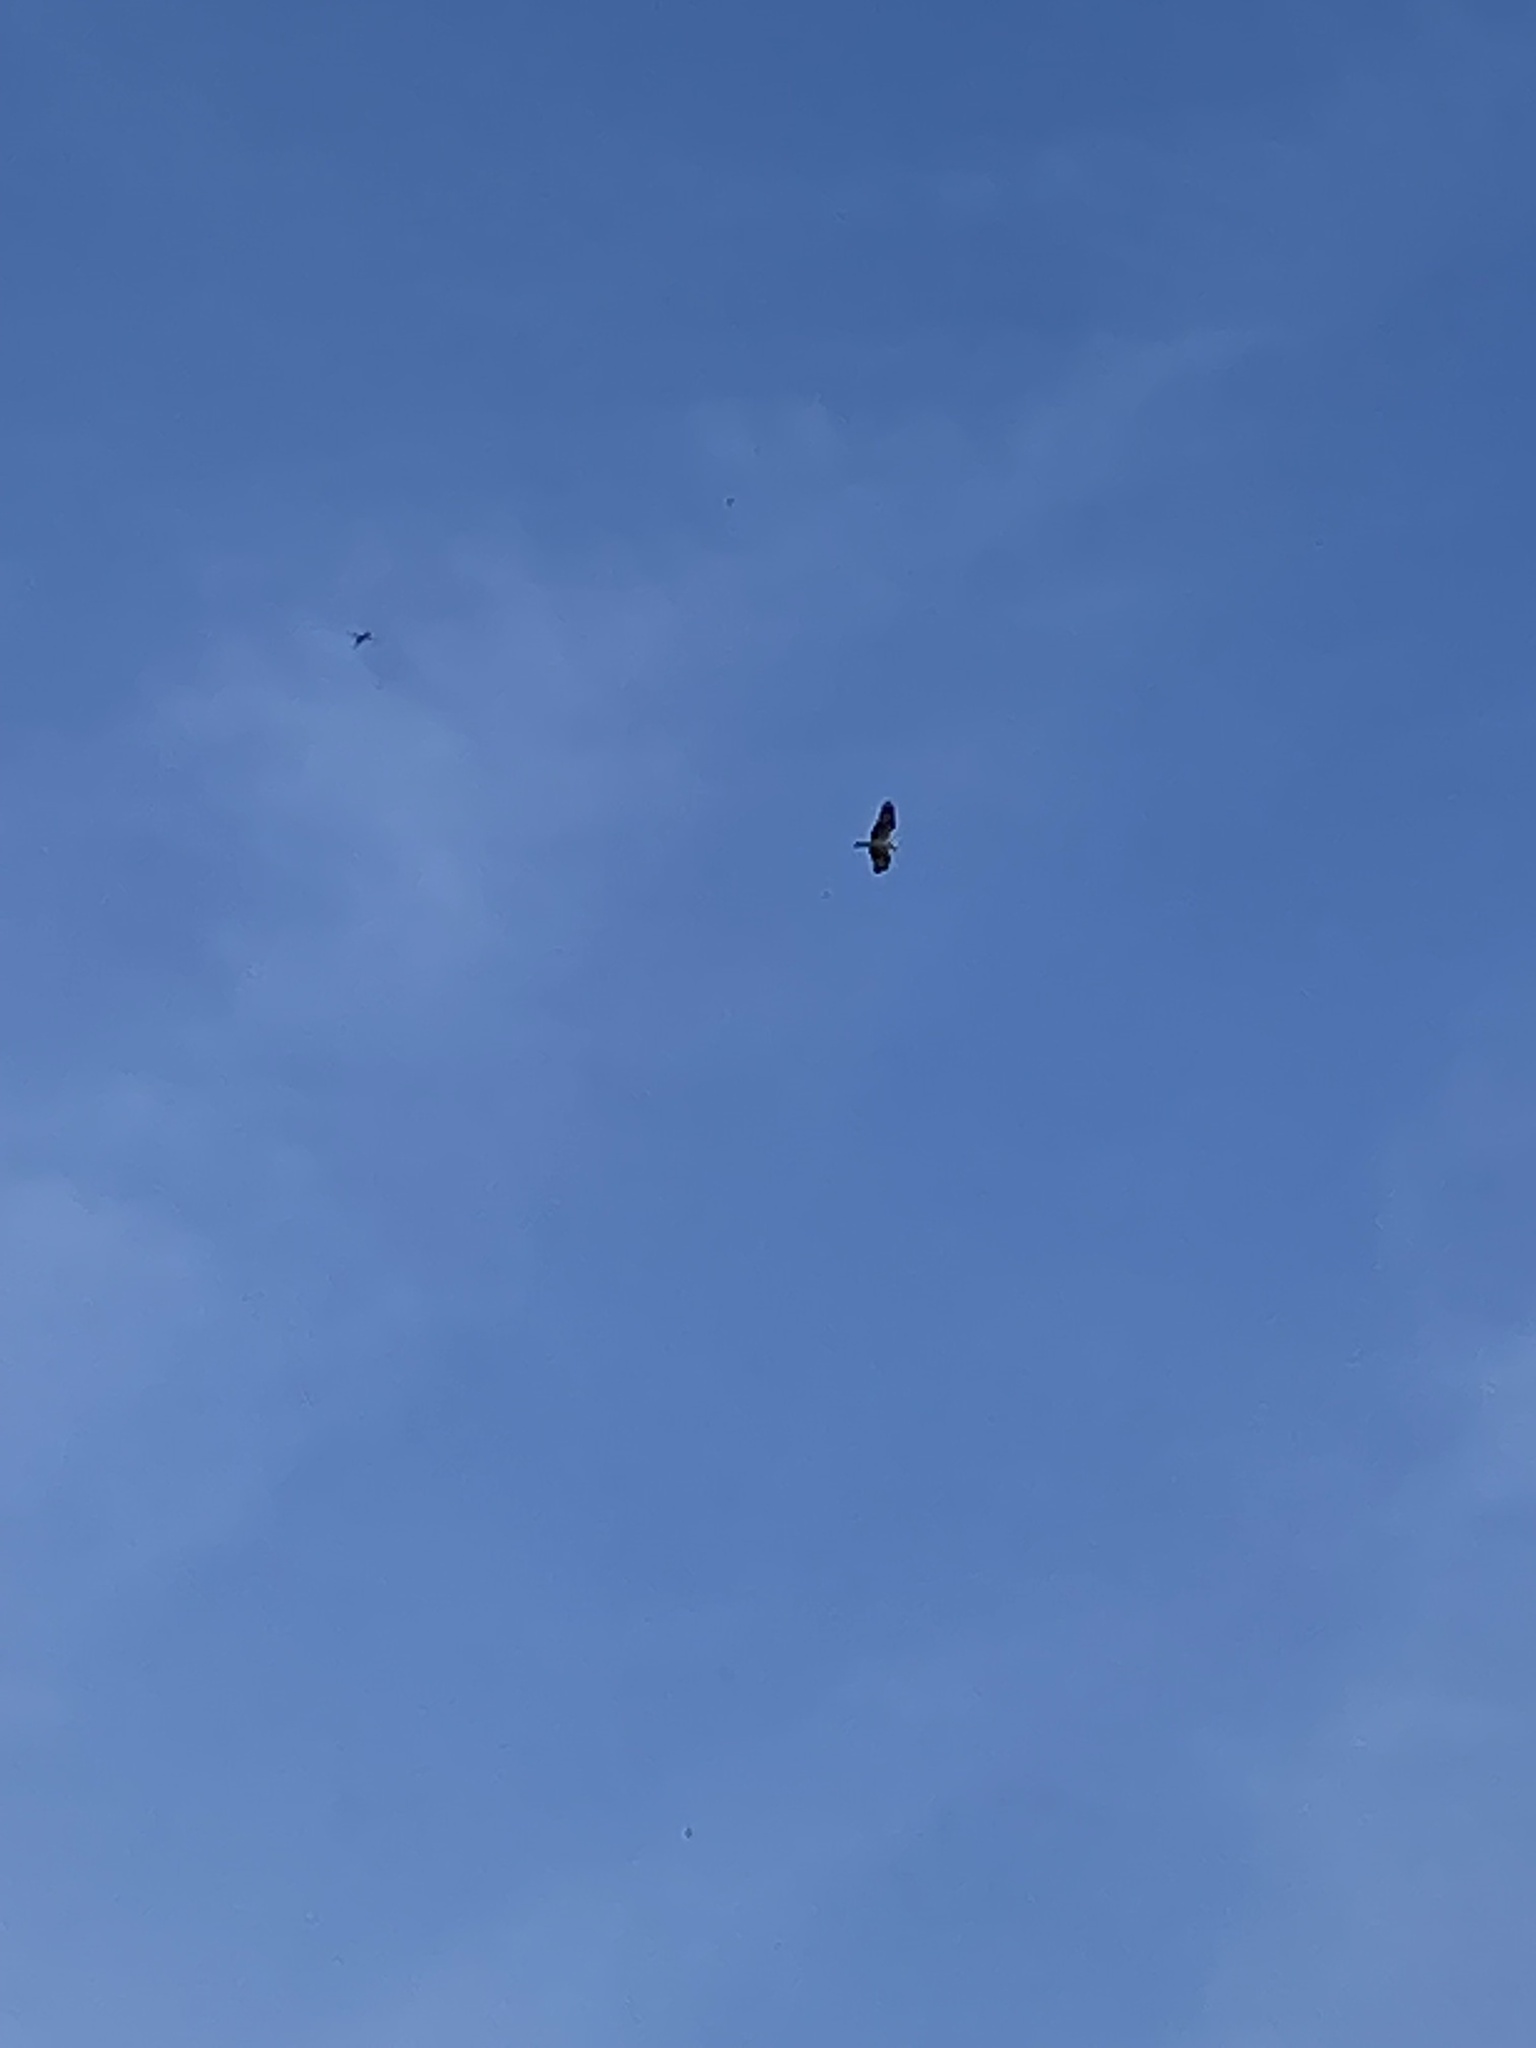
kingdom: Animalia
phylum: Chordata
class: Aves
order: Accipitriformes
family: Pandionidae
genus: Pandion
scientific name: Pandion haliaetus
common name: Osprey
